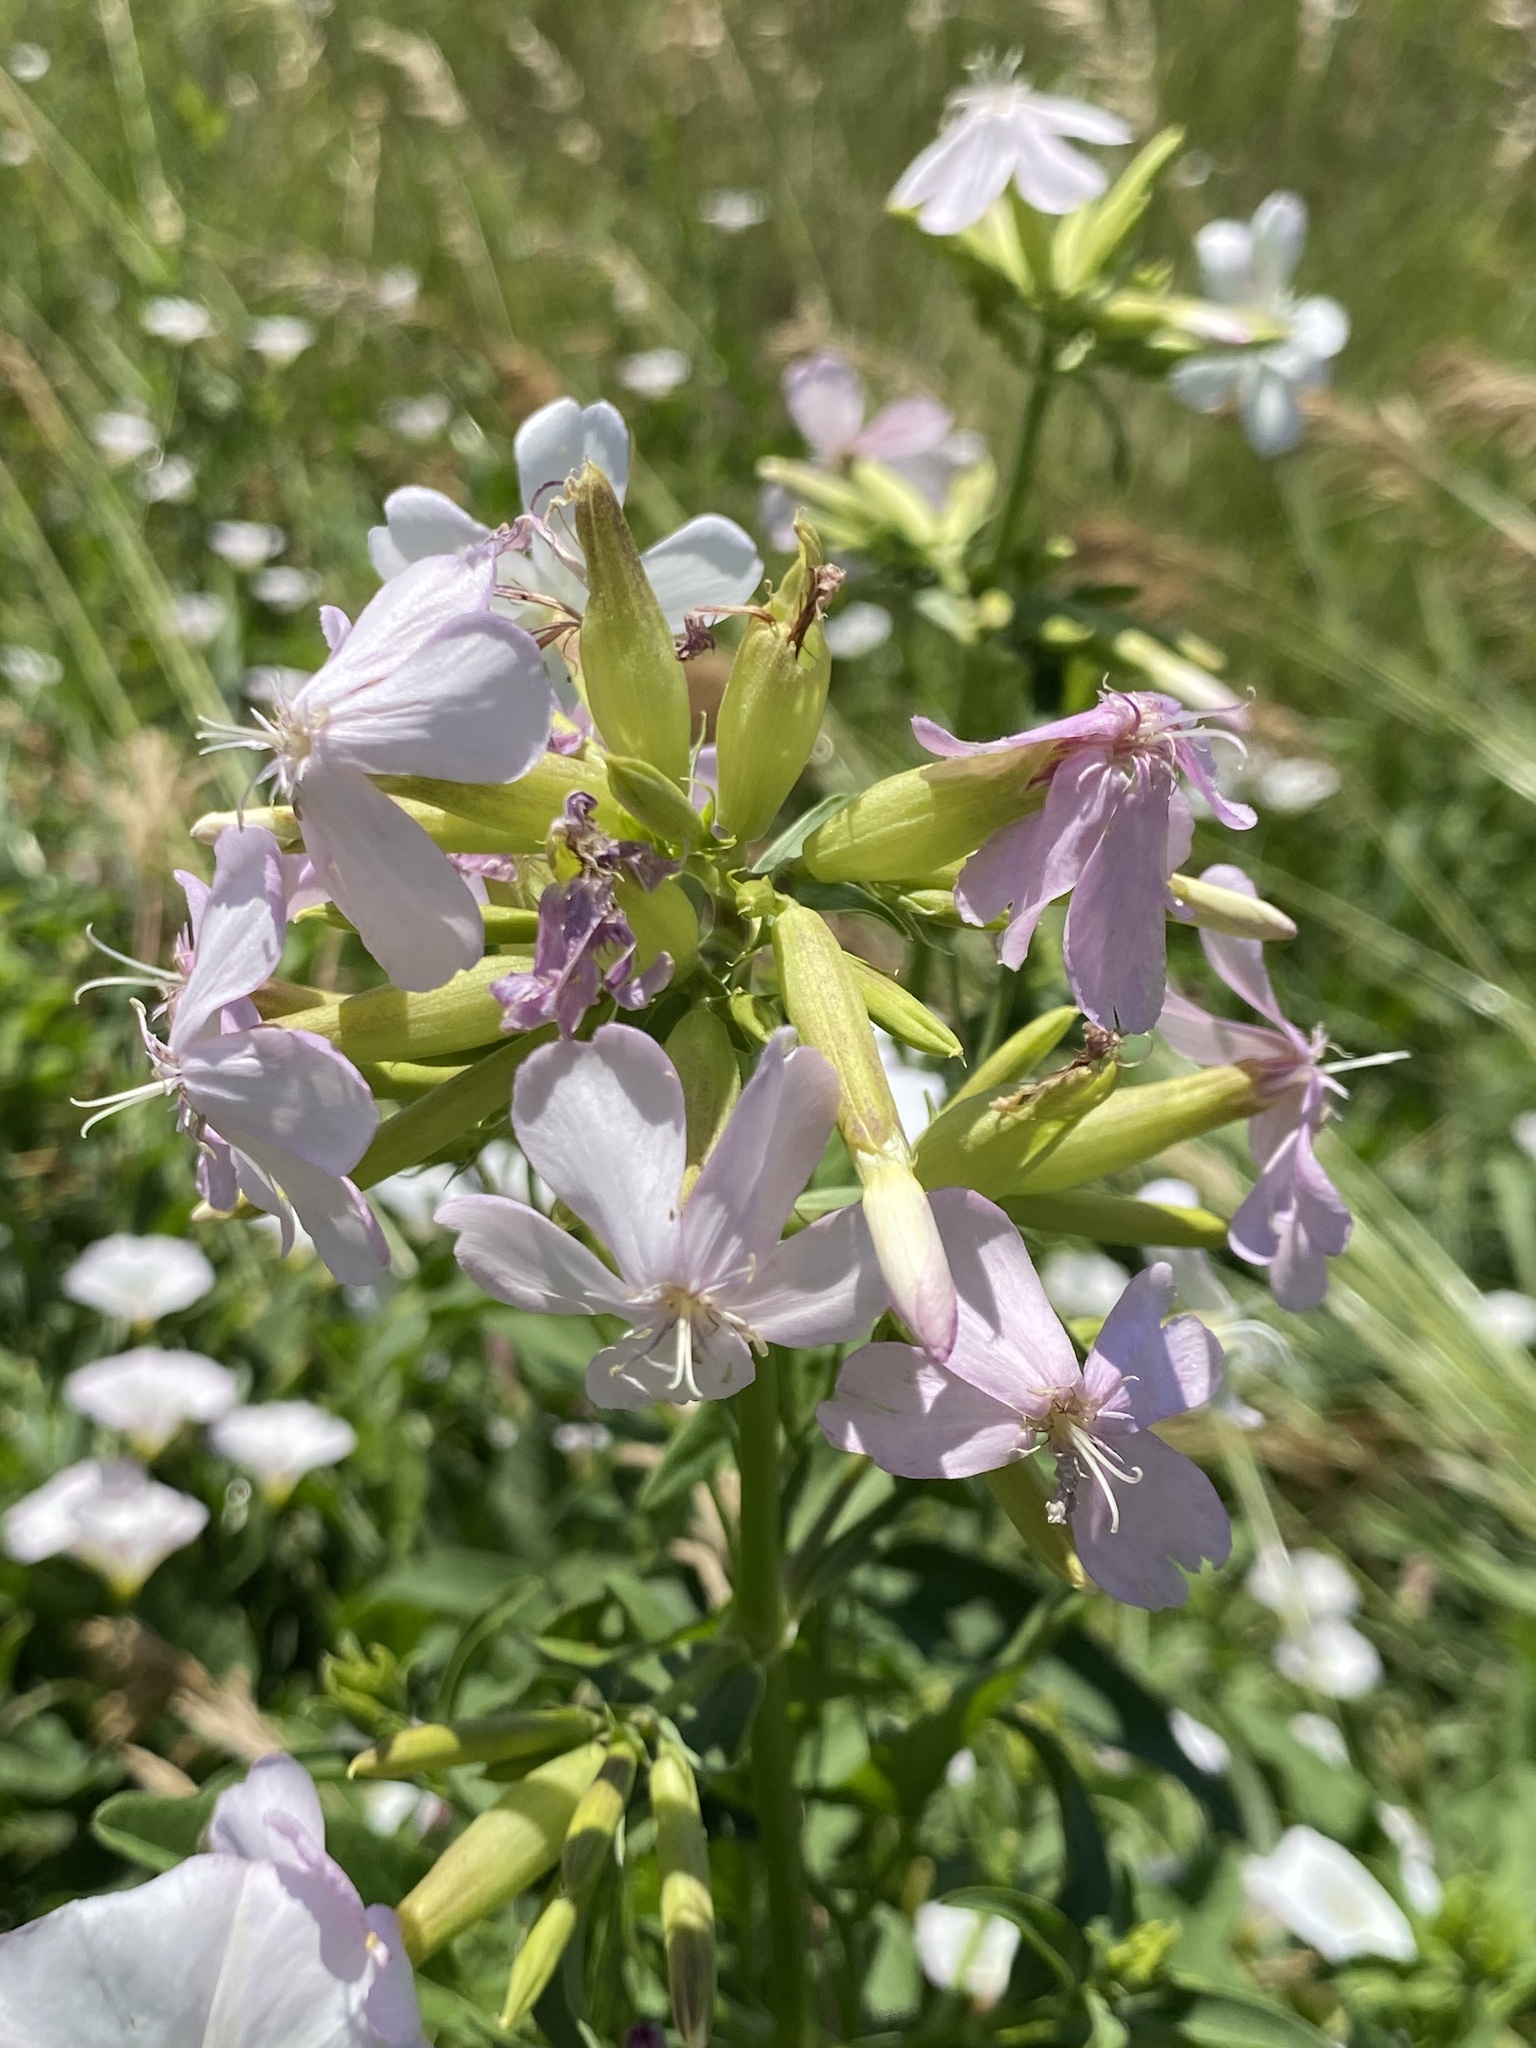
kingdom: Plantae
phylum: Tracheophyta
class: Magnoliopsida
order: Caryophyllales
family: Caryophyllaceae
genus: Saponaria
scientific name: Saponaria officinalis
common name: Soapwort
